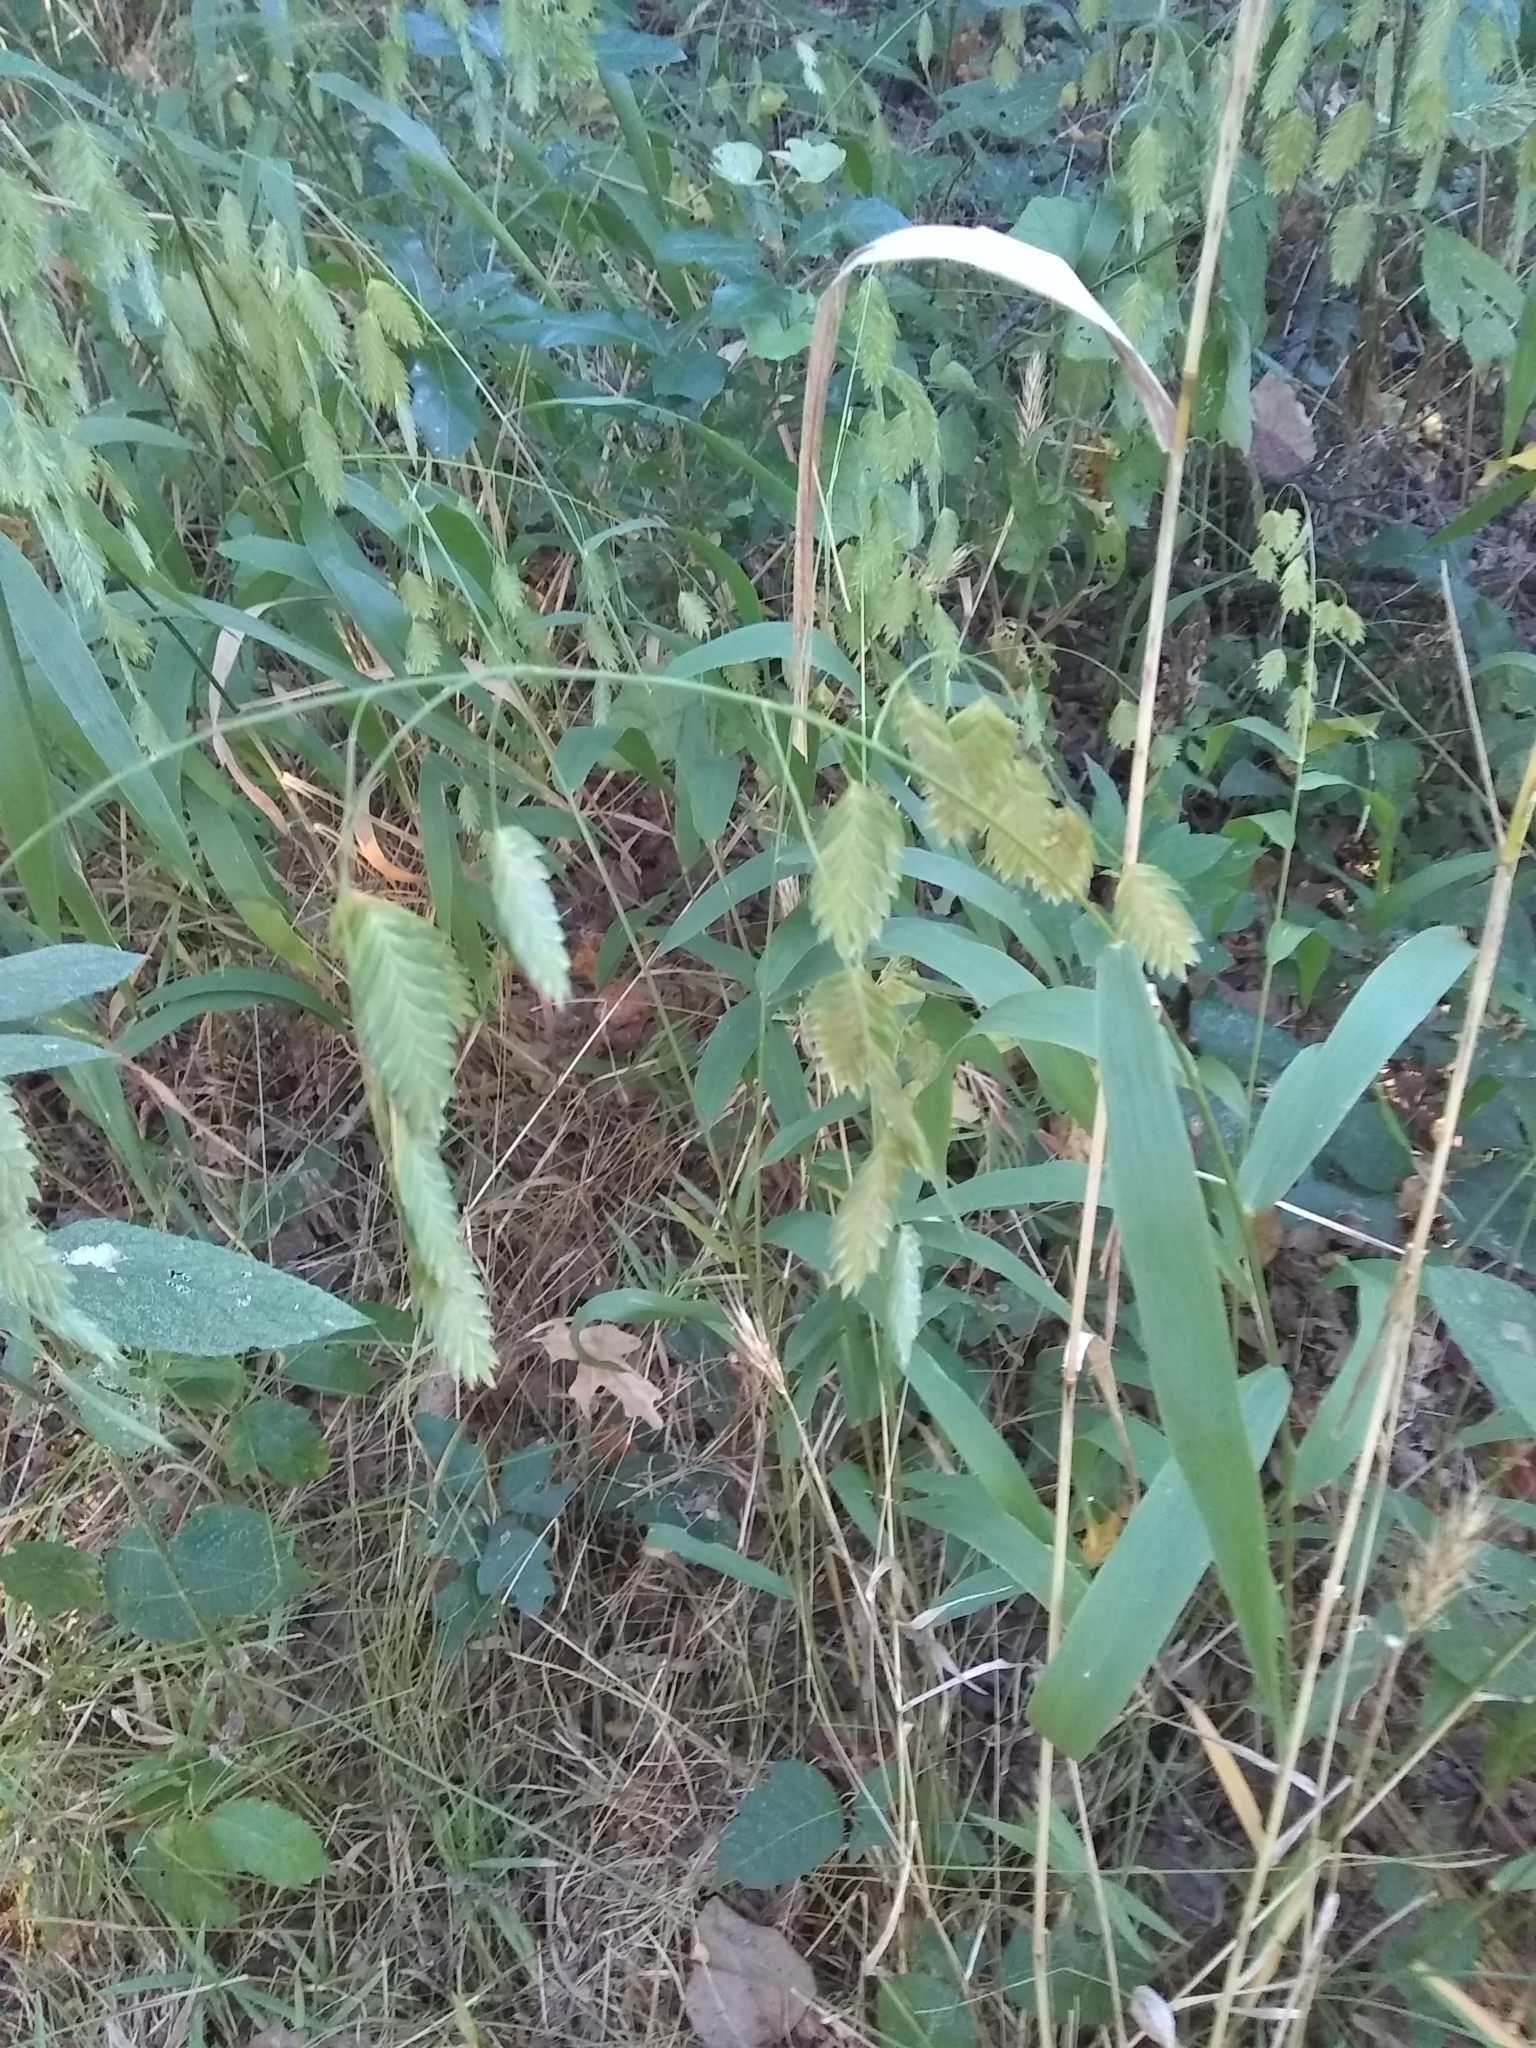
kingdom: Plantae
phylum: Tracheophyta
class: Liliopsida
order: Poales
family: Poaceae
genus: Chasmanthium
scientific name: Chasmanthium latifolium
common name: Broad-leaved chasmanthium
